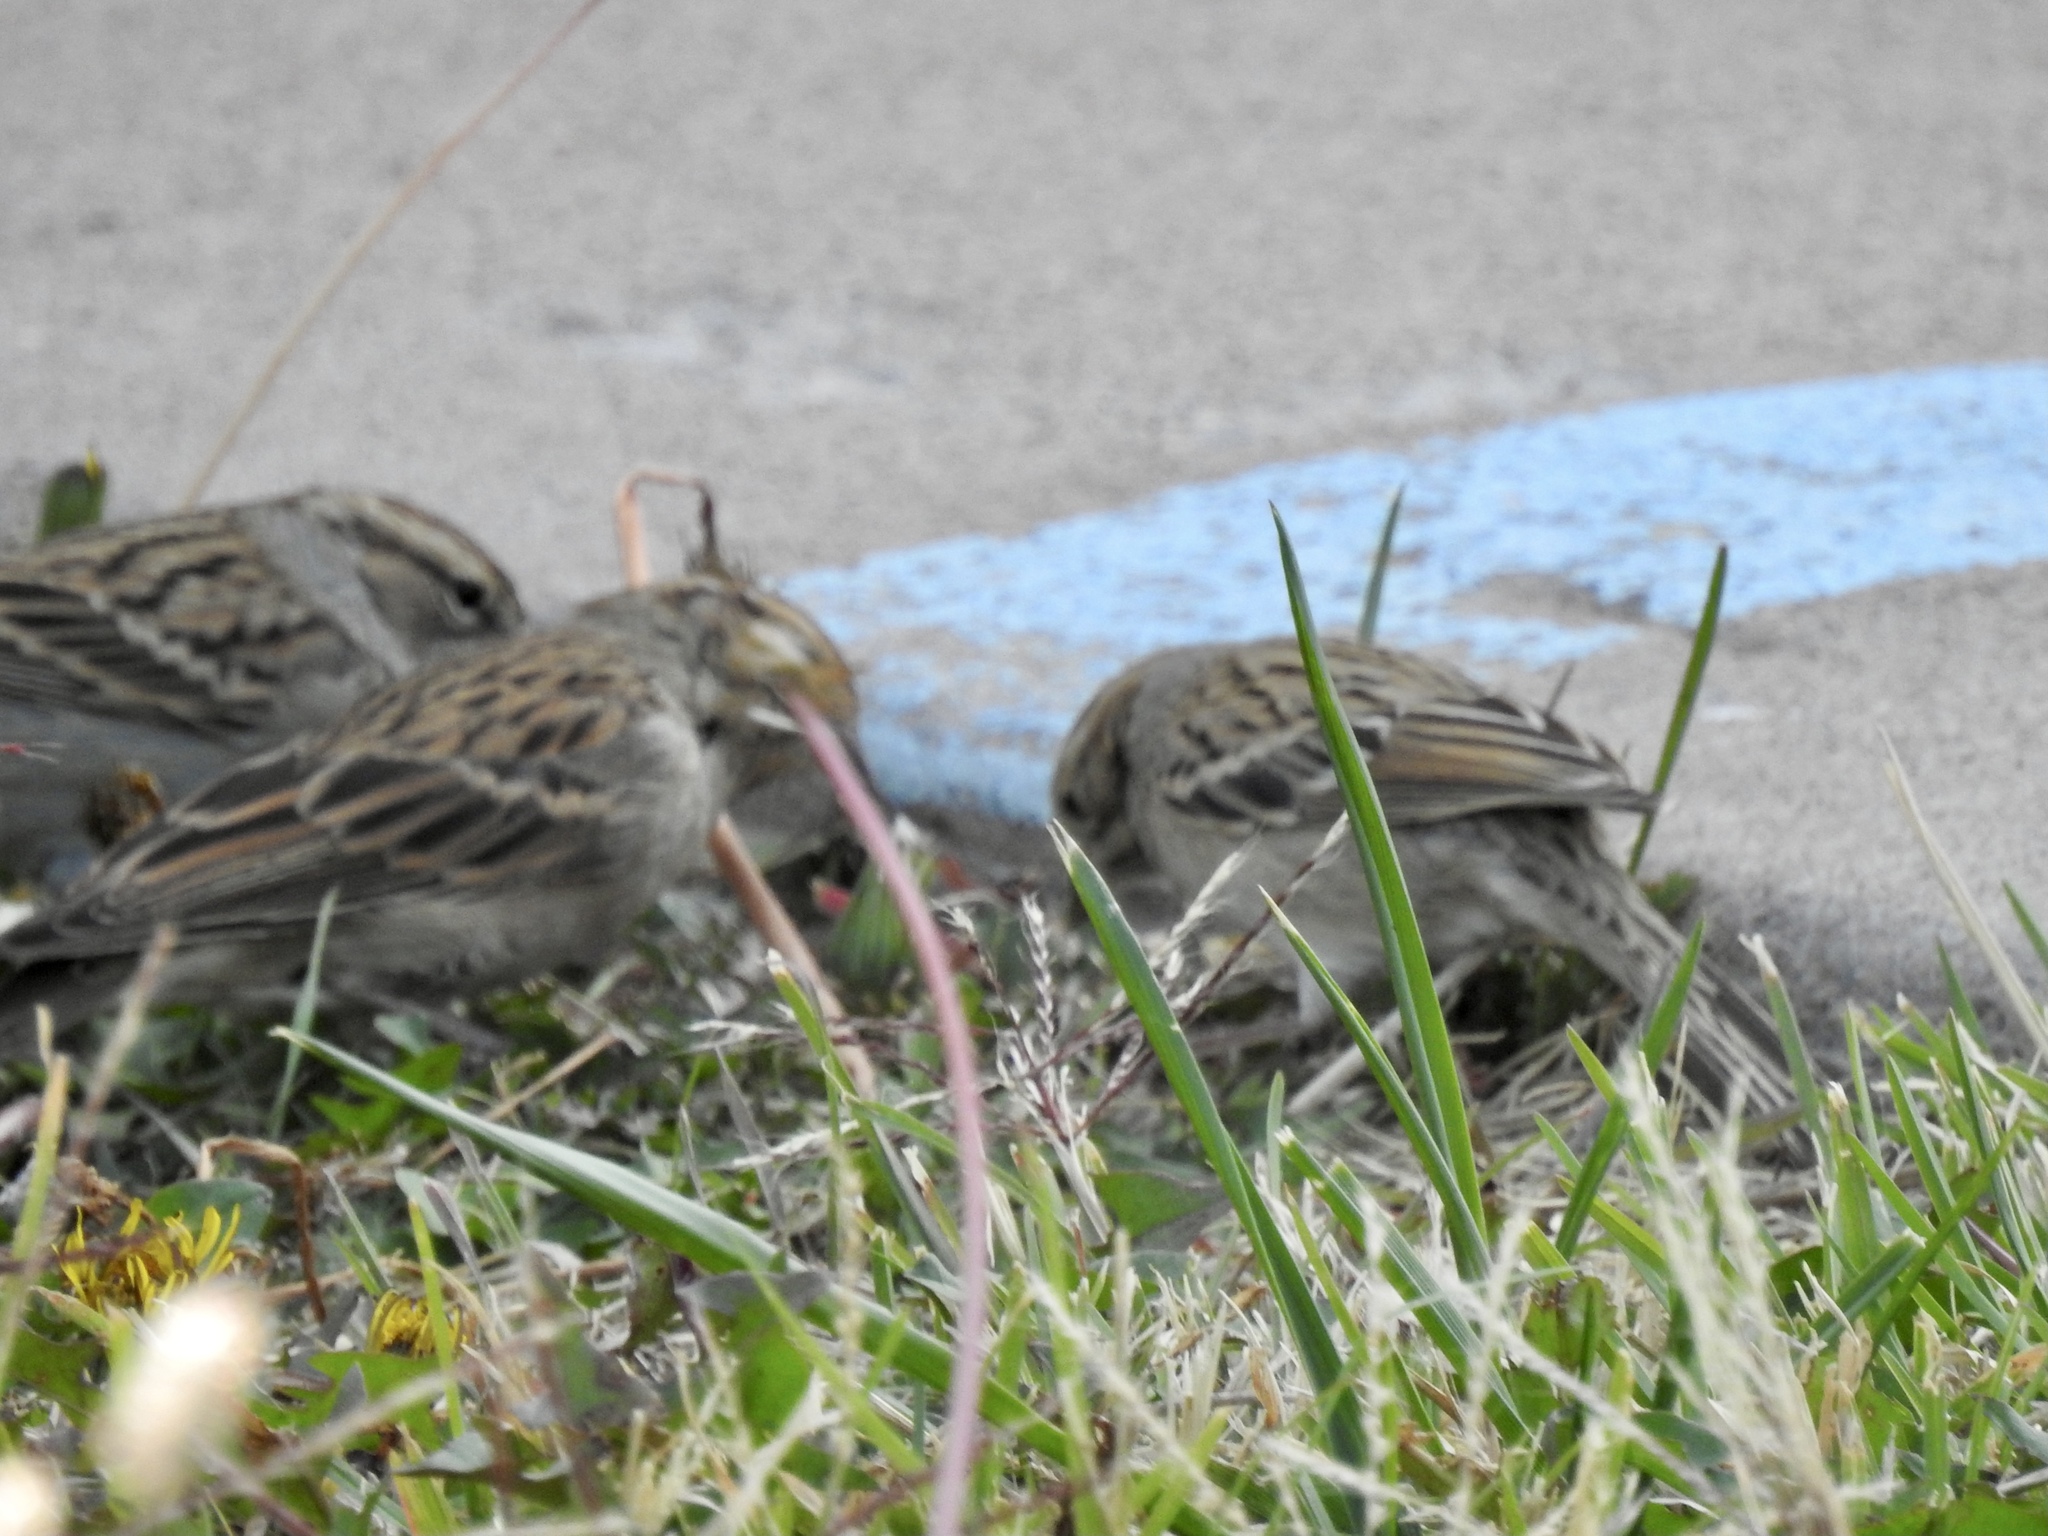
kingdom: Animalia
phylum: Chordata
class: Aves
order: Passeriformes
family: Passerellidae
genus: Spizella
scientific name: Spizella breweri
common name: Brewer's sparrow
